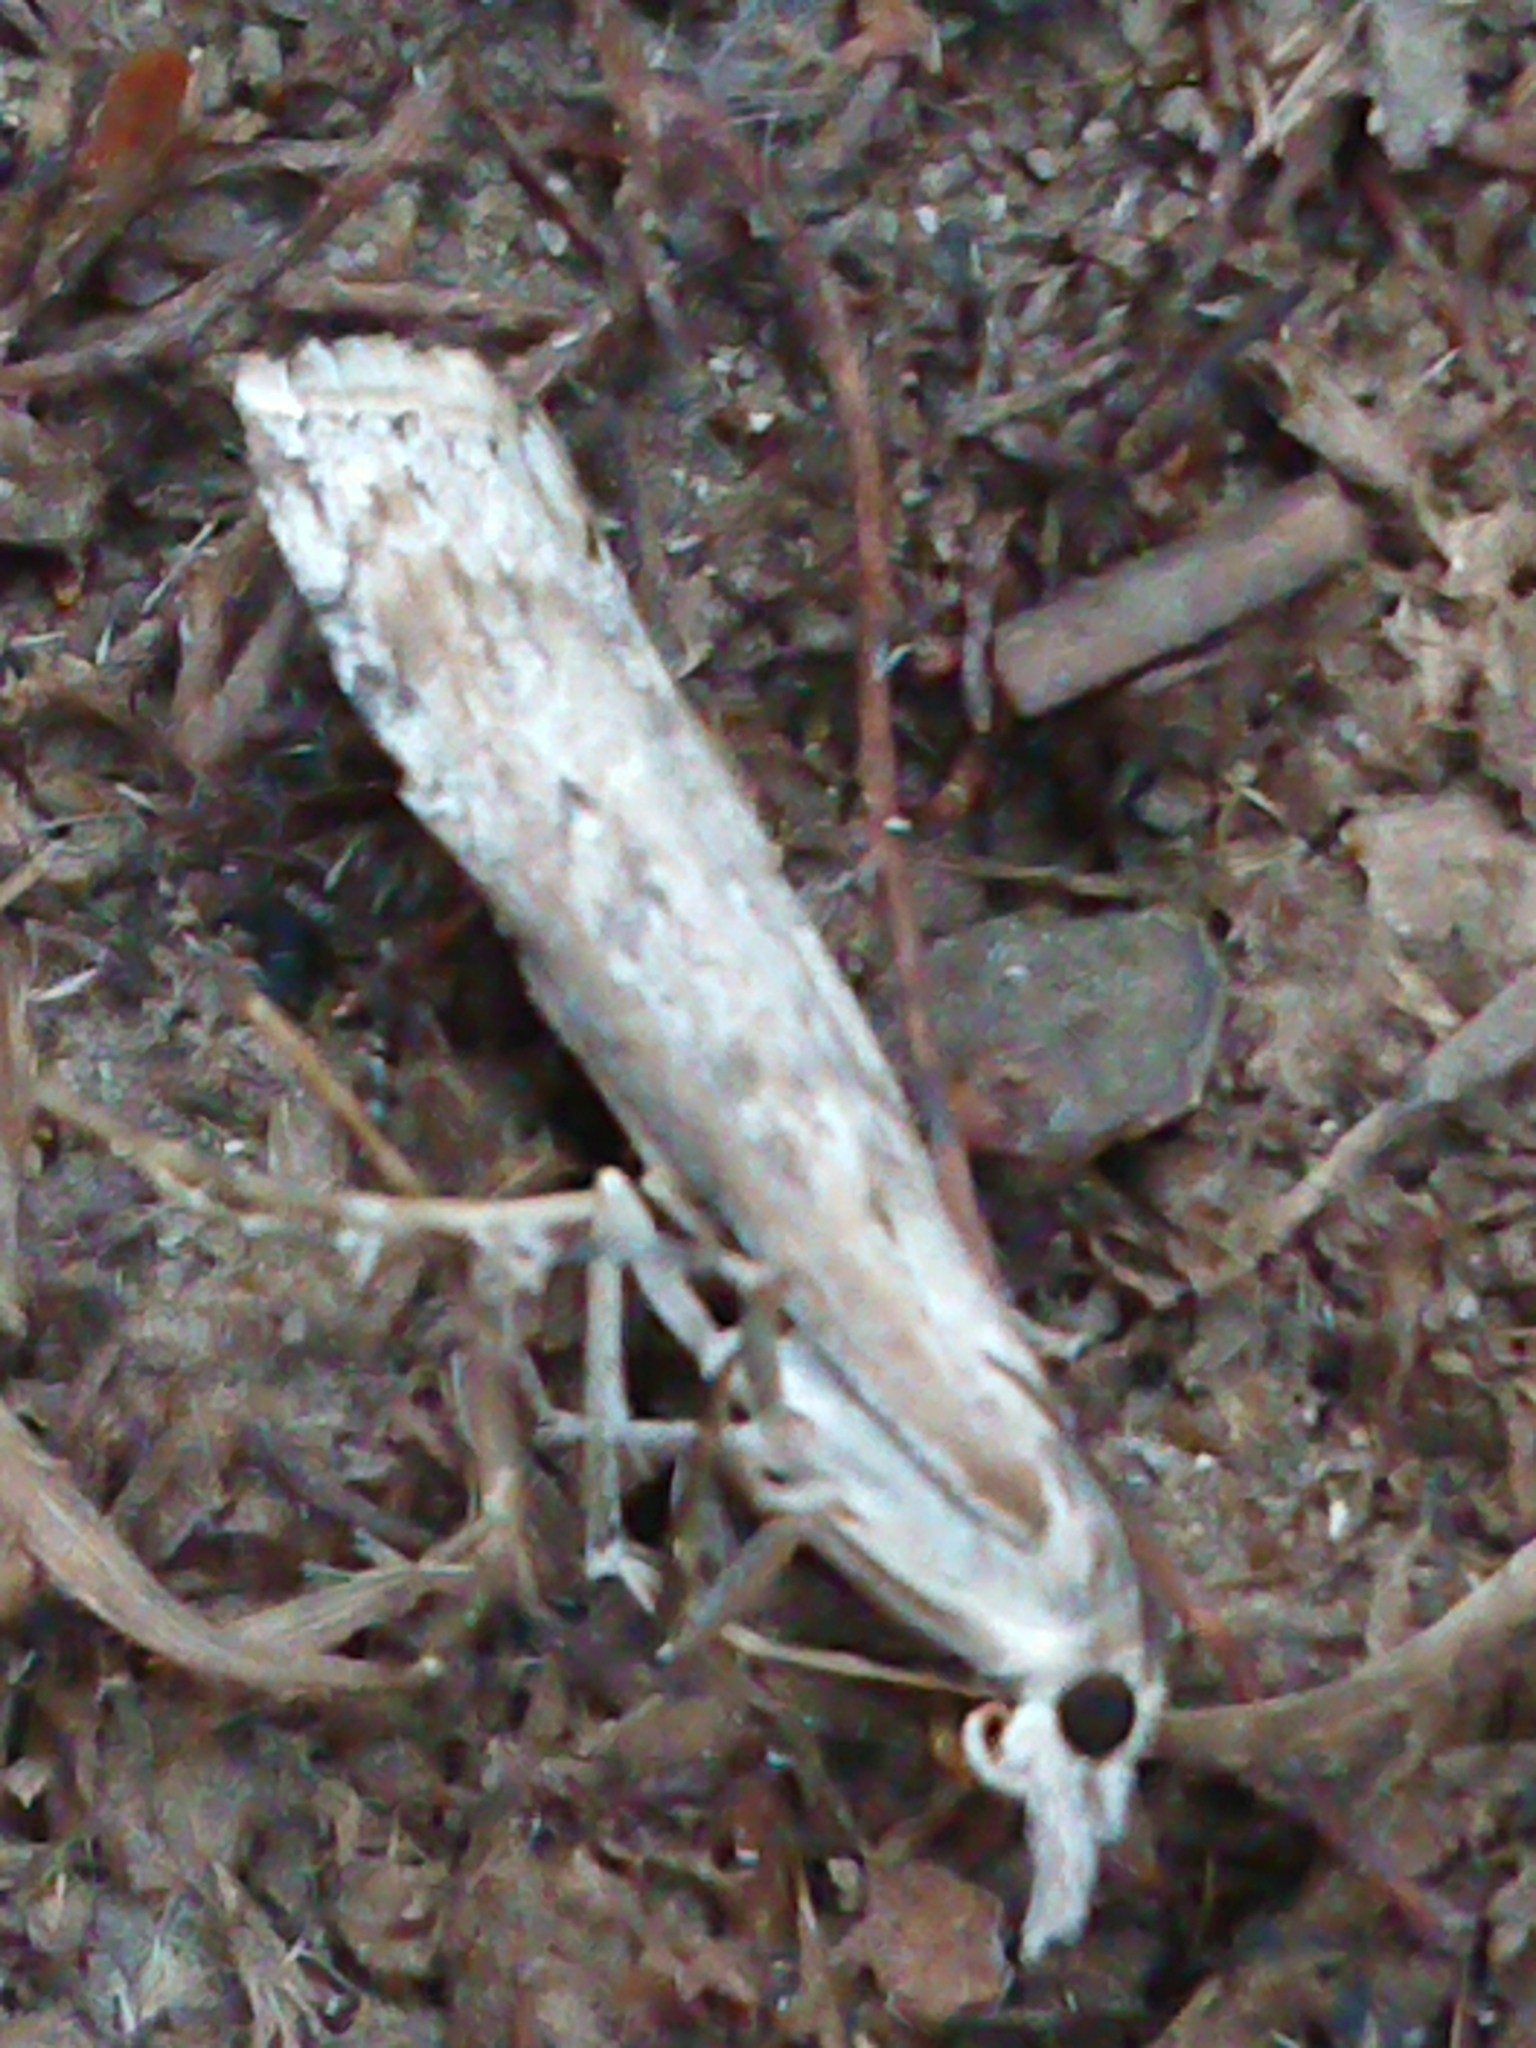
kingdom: Animalia
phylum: Arthropoda
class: Insecta
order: Lepidoptera
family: Crambidae
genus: Orocrambus
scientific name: Orocrambus cyclopicus
